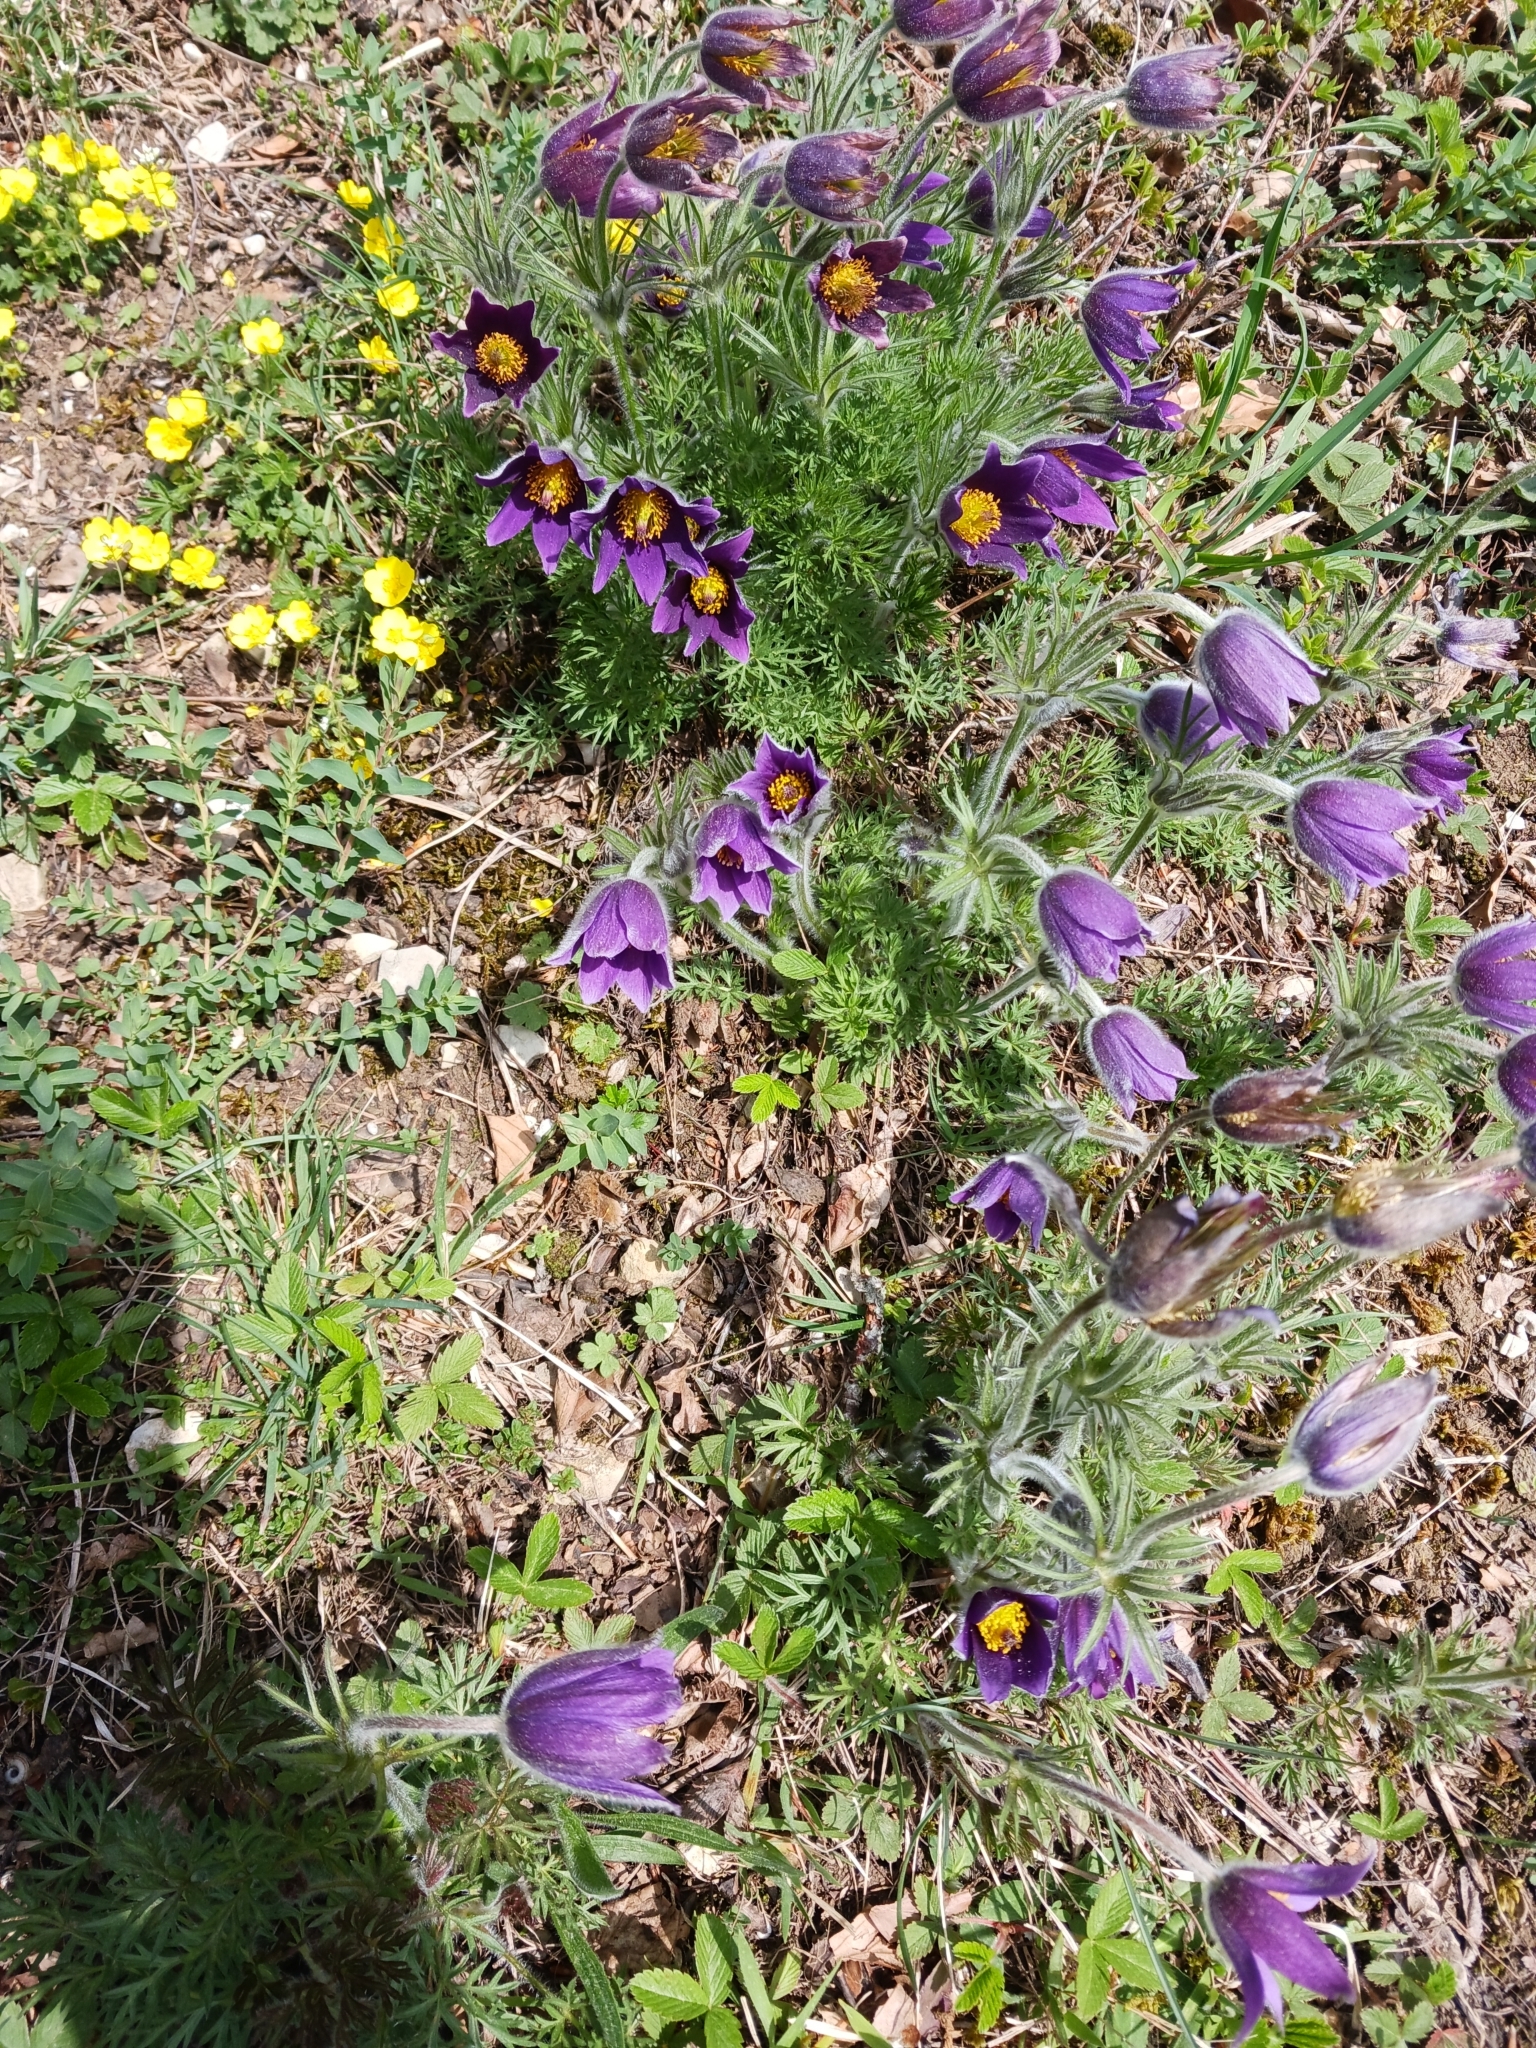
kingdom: Plantae
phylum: Tracheophyta
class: Magnoliopsida
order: Ranunculales
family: Ranunculaceae
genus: Pulsatilla
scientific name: Pulsatilla vulgaris
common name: Pasqueflower
